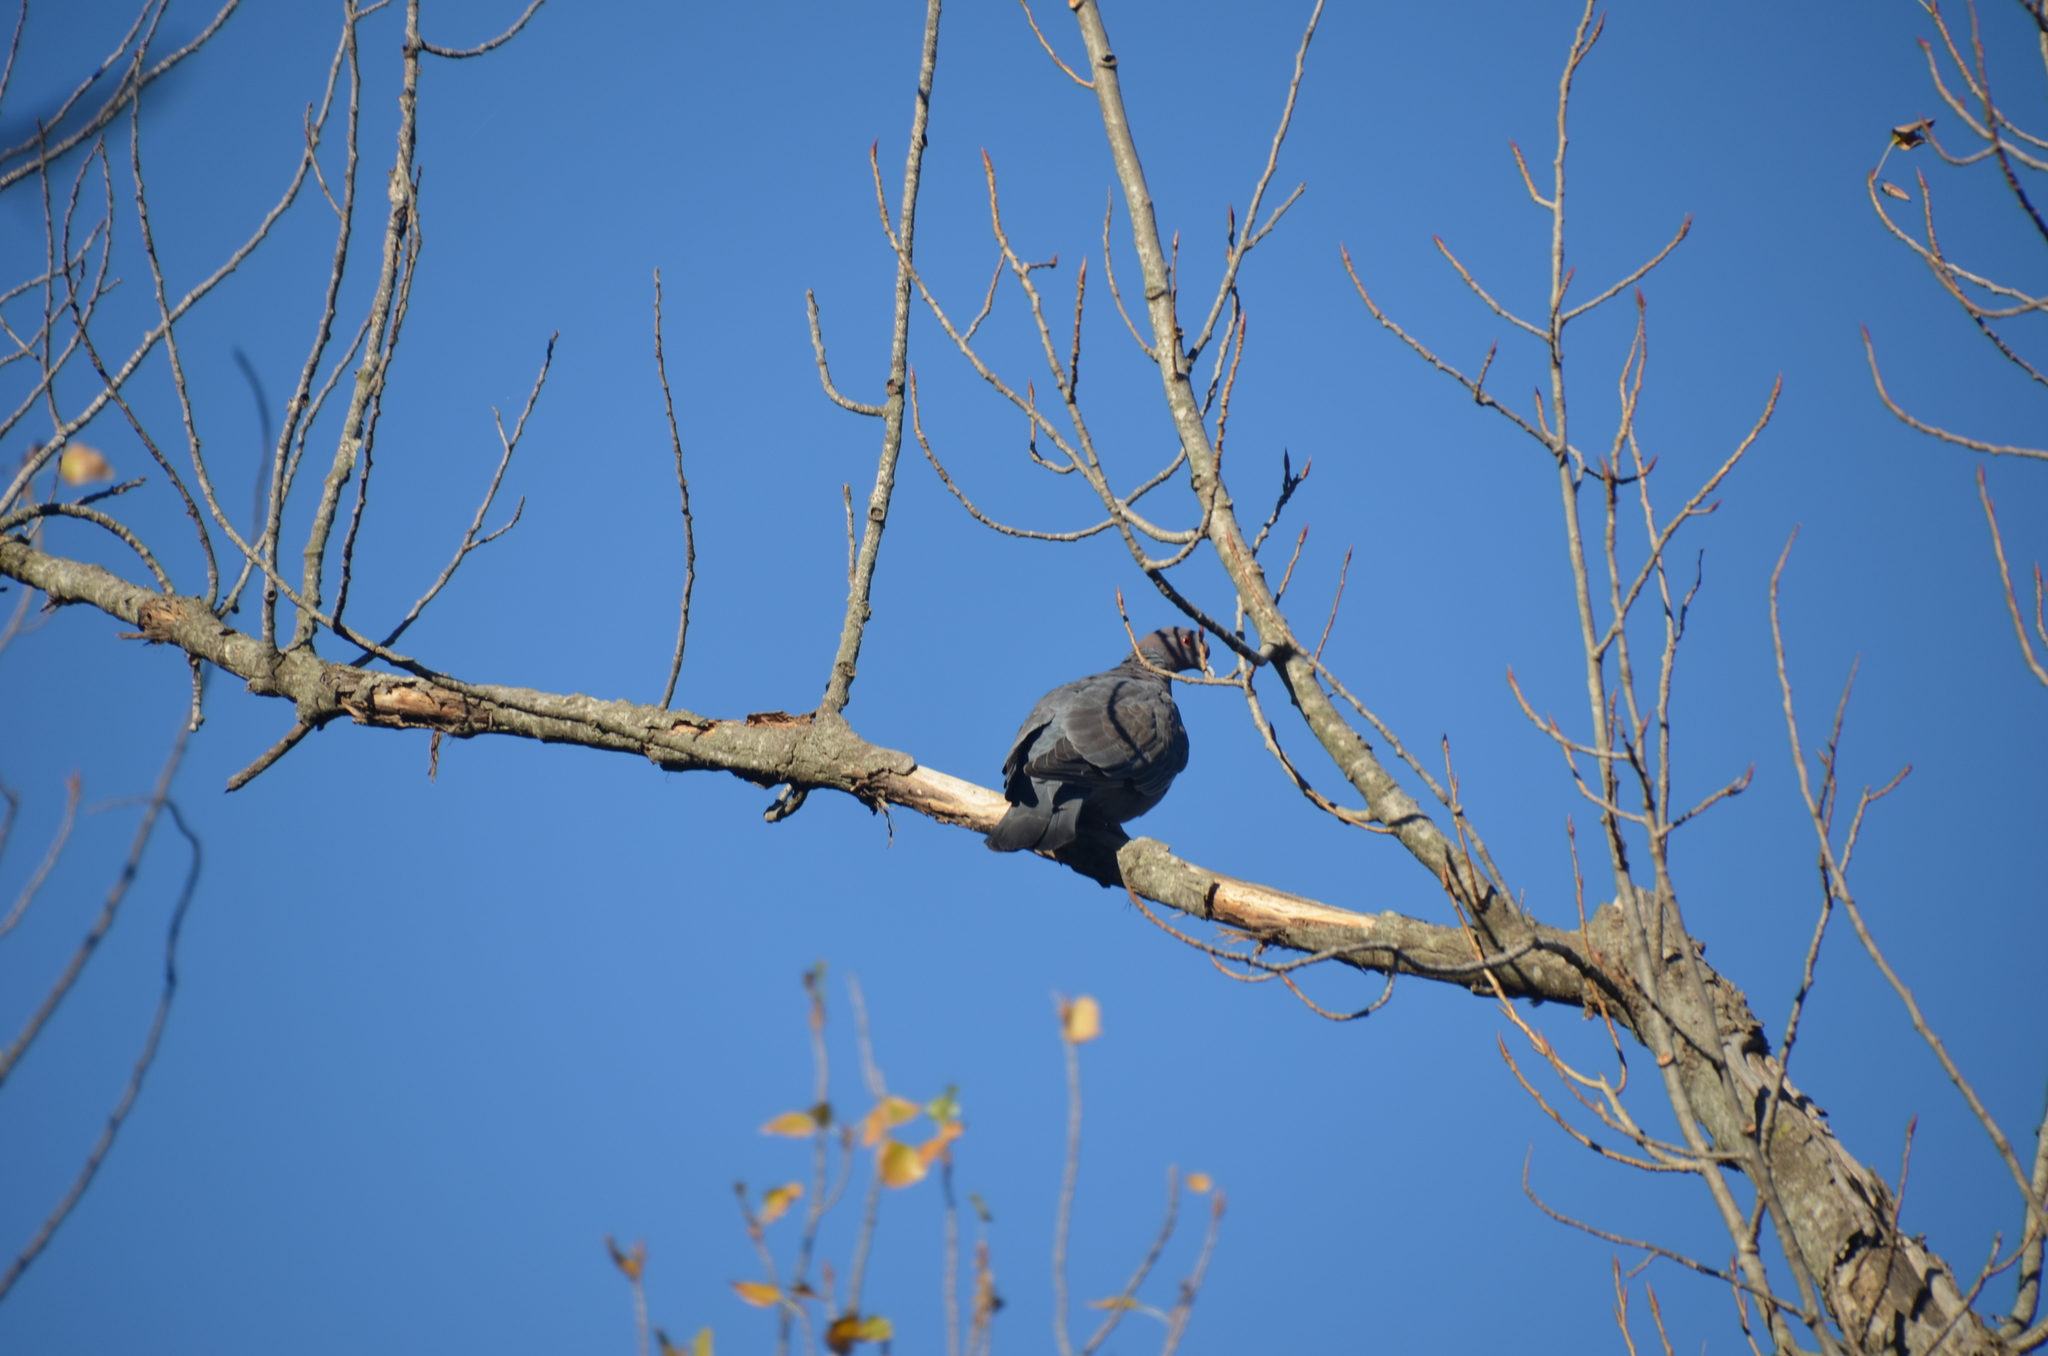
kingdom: Animalia
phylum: Chordata
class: Aves
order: Columbiformes
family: Columbidae
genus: Patagioenas
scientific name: Patagioenas picazuro
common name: Picazuro pigeon
